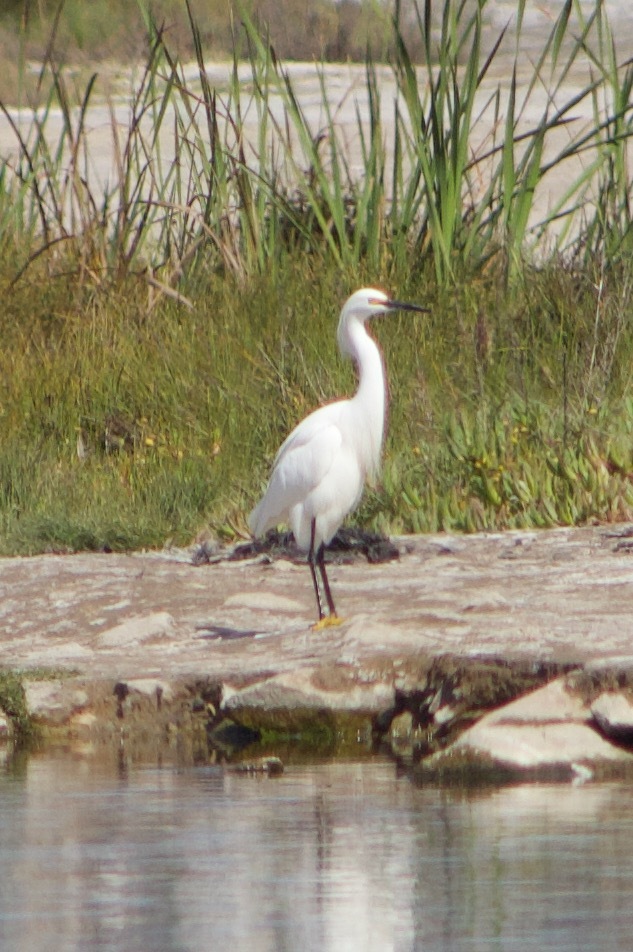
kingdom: Animalia
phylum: Chordata
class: Aves
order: Pelecaniformes
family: Ardeidae
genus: Egretta
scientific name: Egretta thula
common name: Snowy egret
